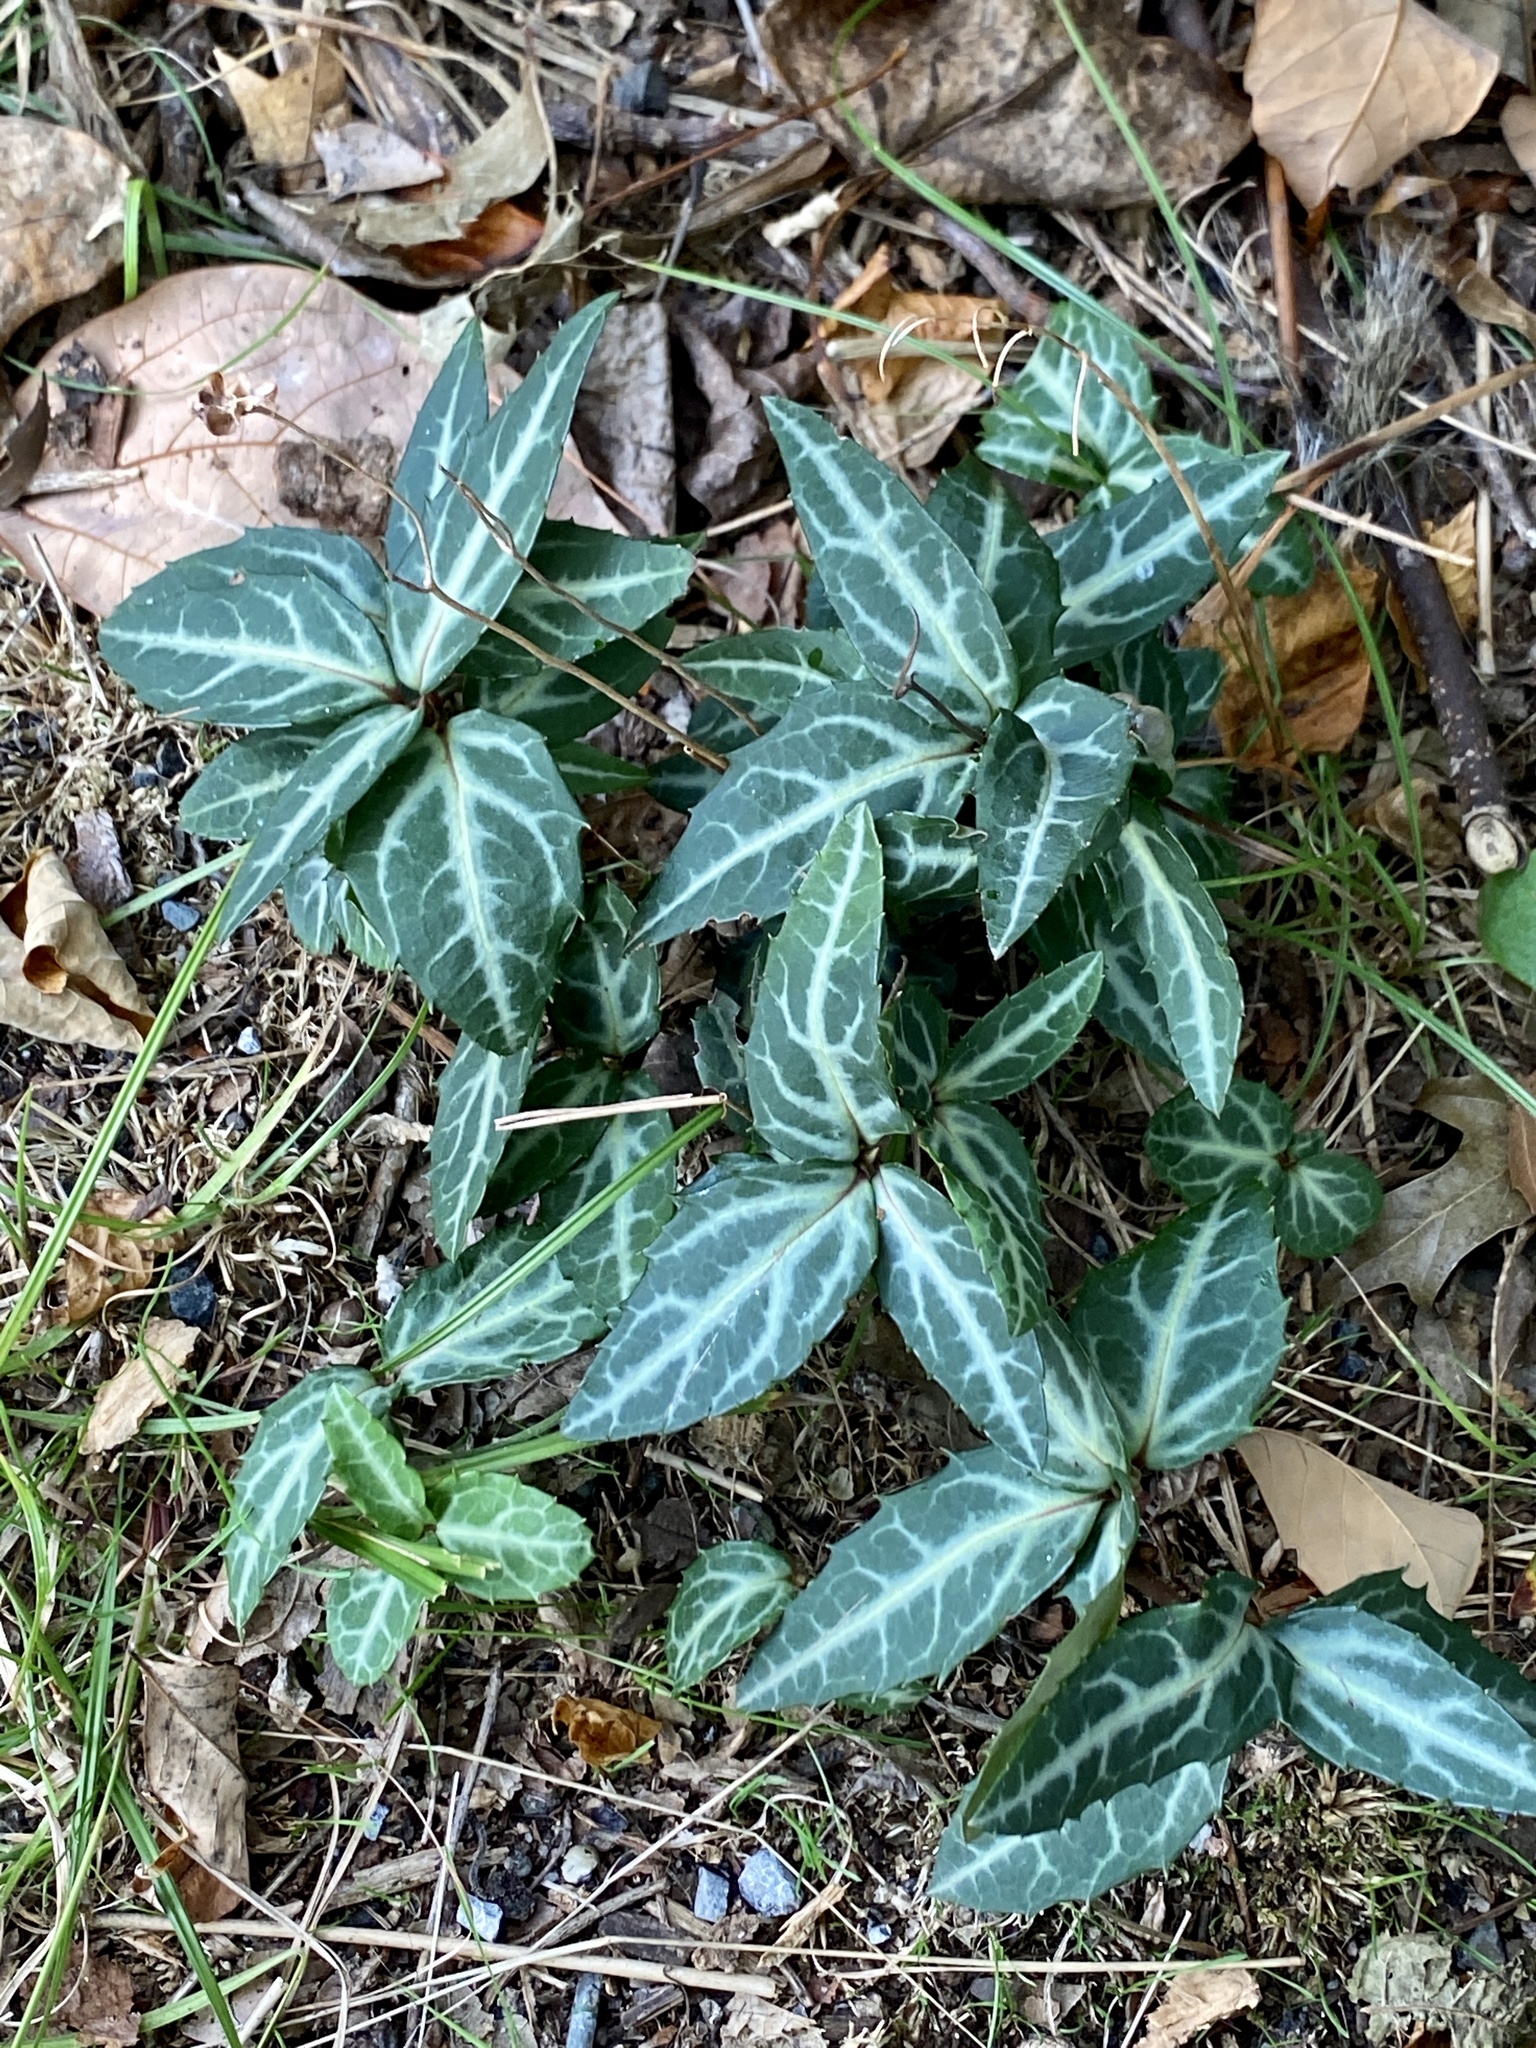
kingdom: Plantae
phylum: Tracheophyta
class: Magnoliopsida
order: Ericales
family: Ericaceae
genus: Chimaphila
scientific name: Chimaphila maculata
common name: Spotted pipsissewa
